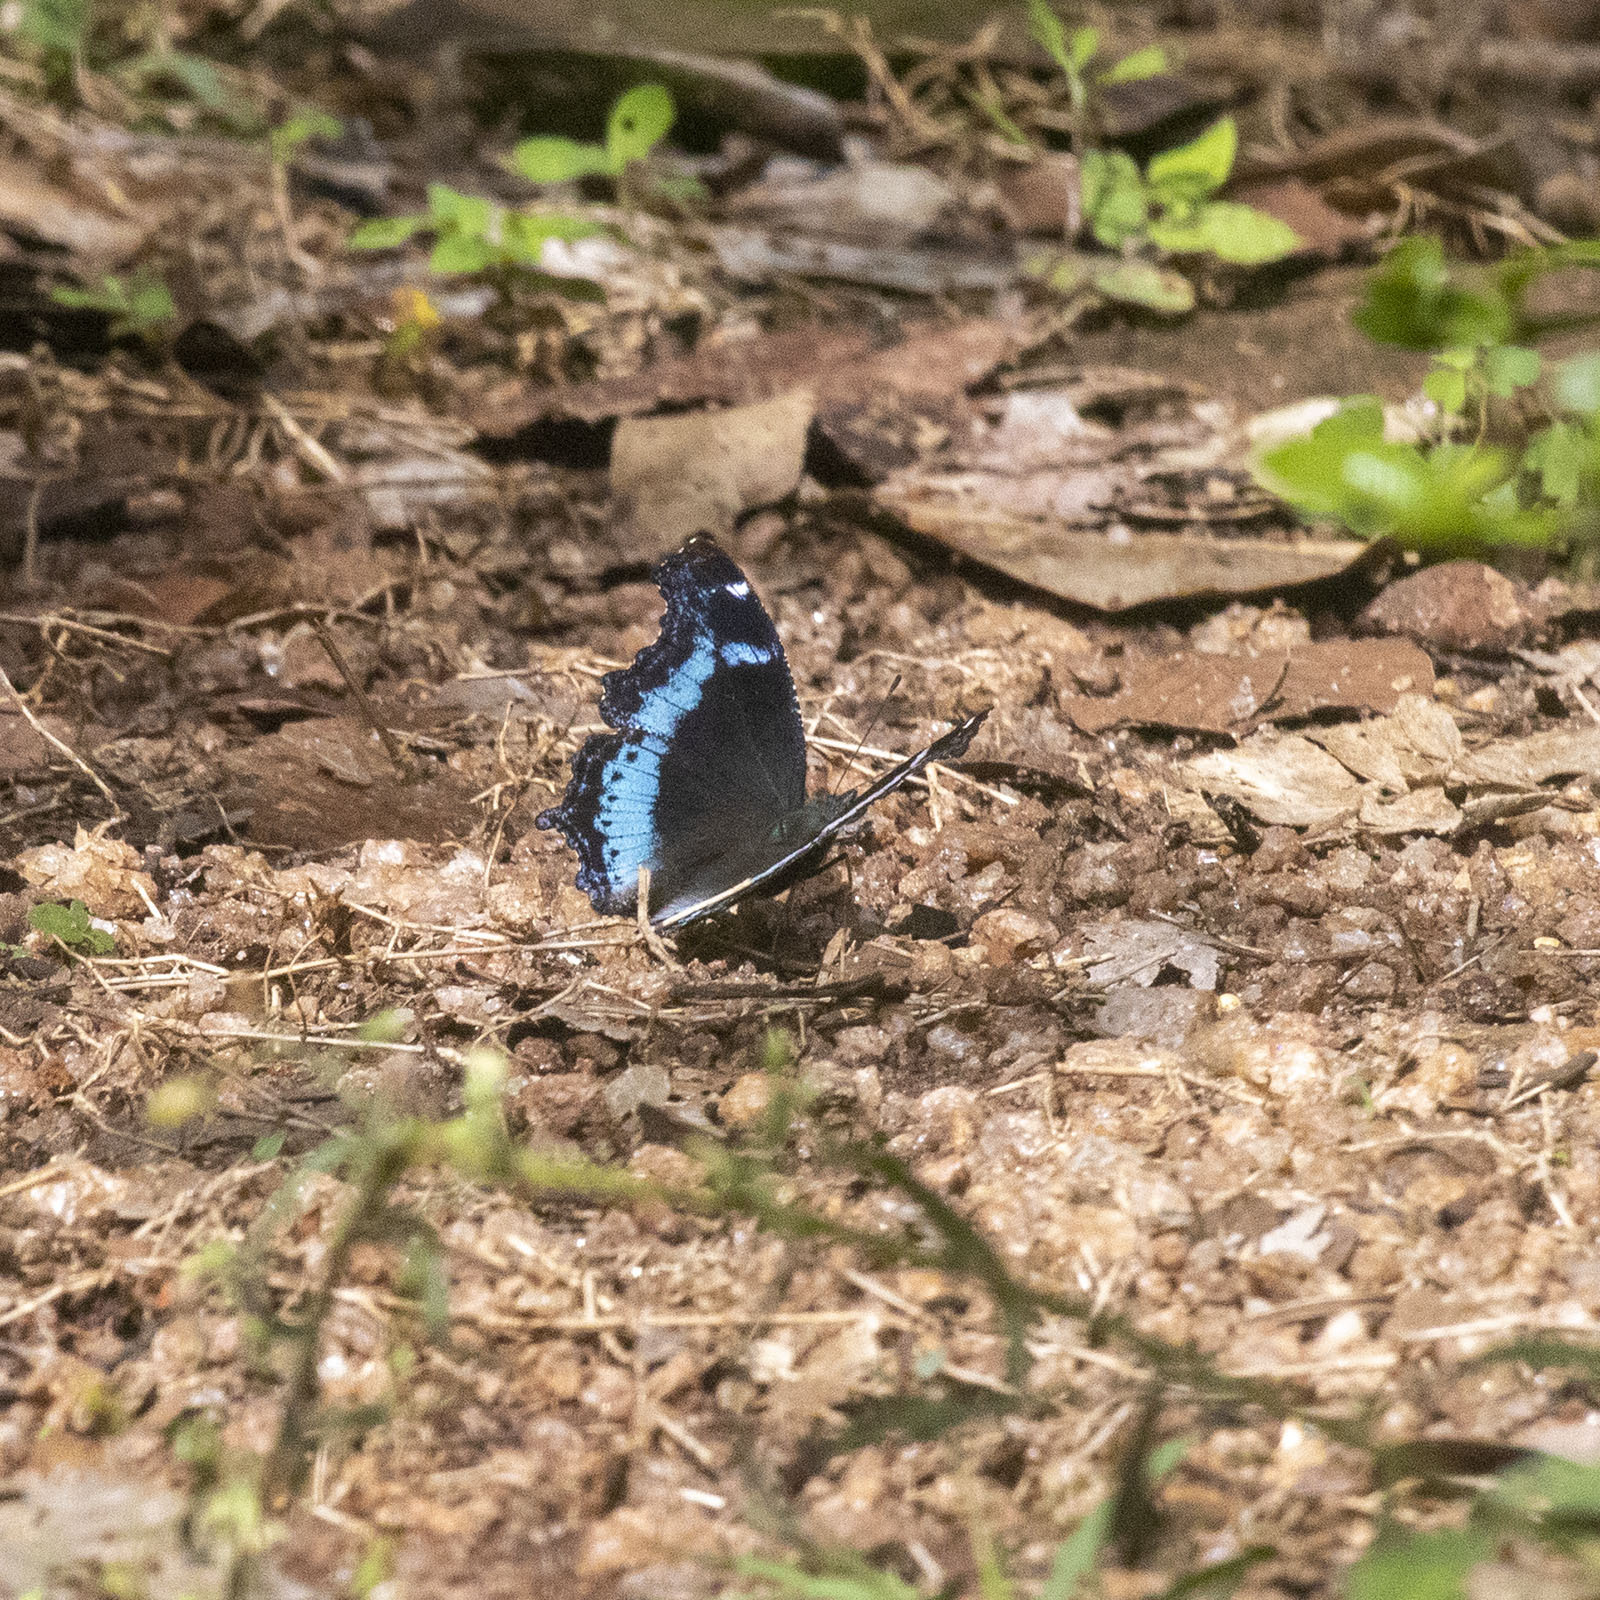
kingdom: Animalia
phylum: Arthropoda
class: Insecta
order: Lepidoptera
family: Nymphalidae
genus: Vanessa
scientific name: Vanessa Kaniska canace
